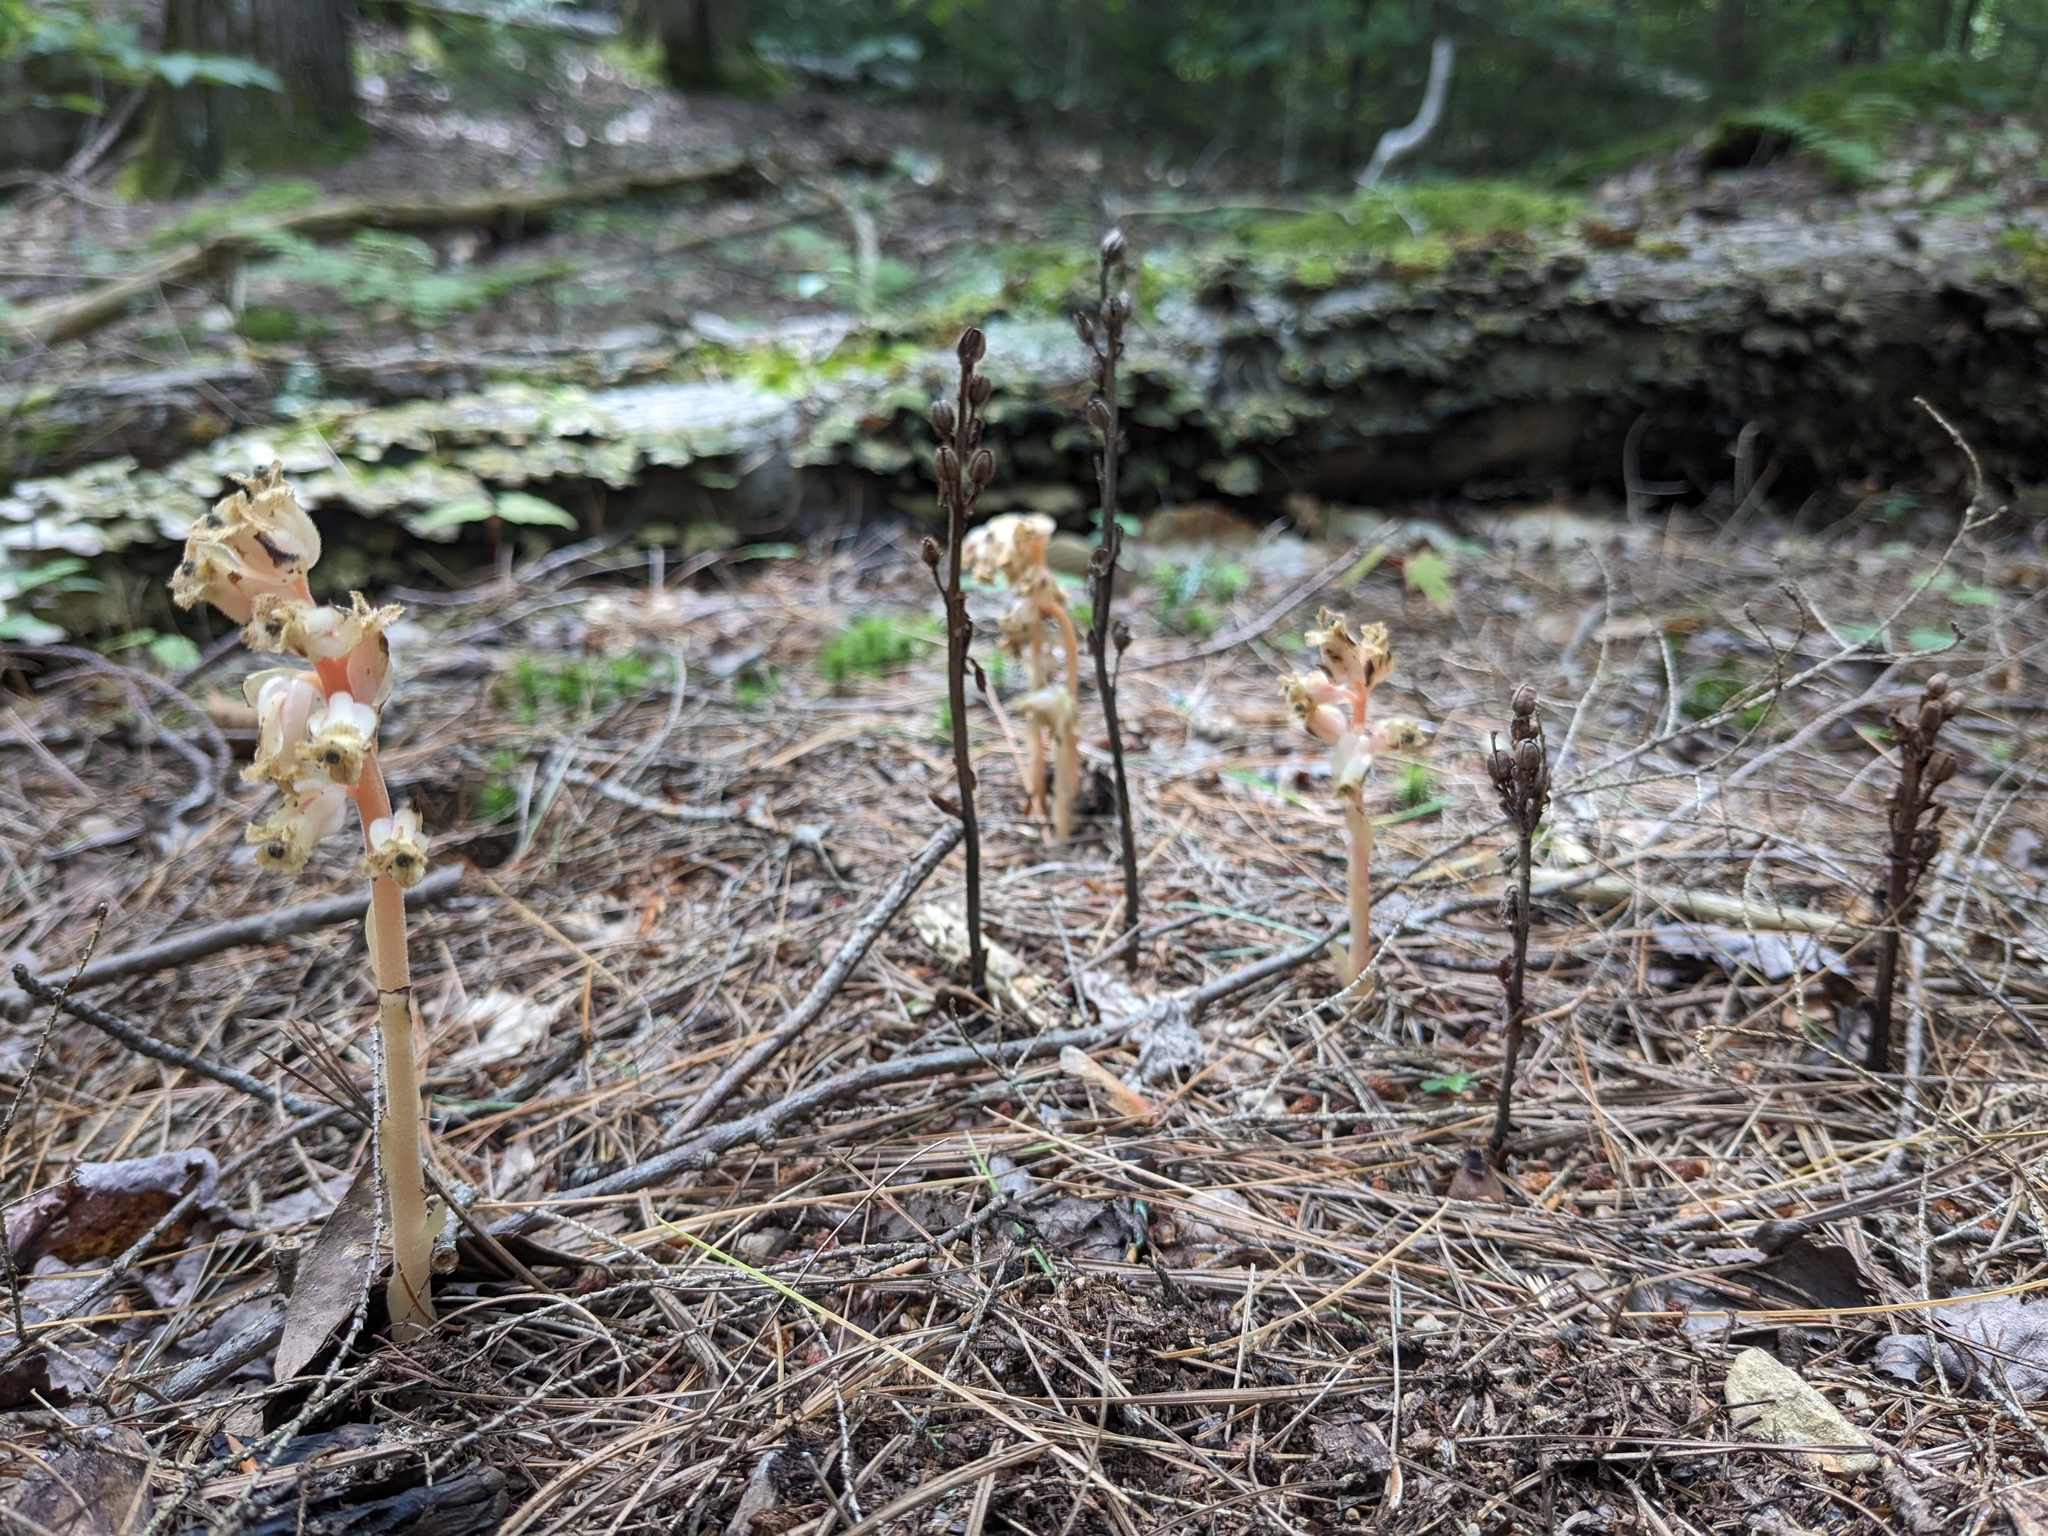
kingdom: Plantae
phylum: Tracheophyta
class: Magnoliopsida
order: Ericales
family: Ericaceae
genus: Hypopitys
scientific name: Hypopitys monotropa
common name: Yellow bird's-nest
